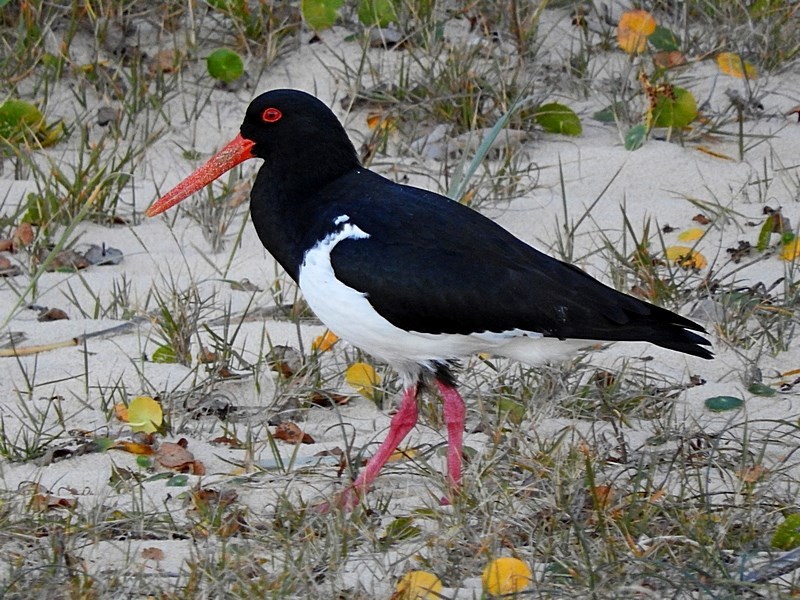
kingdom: Animalia
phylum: Chordata
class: Aves
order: Charadriiformes
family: Haematopodidae
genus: Haematopus
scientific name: Haematopus longirostris
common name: Pied oystercatcher
